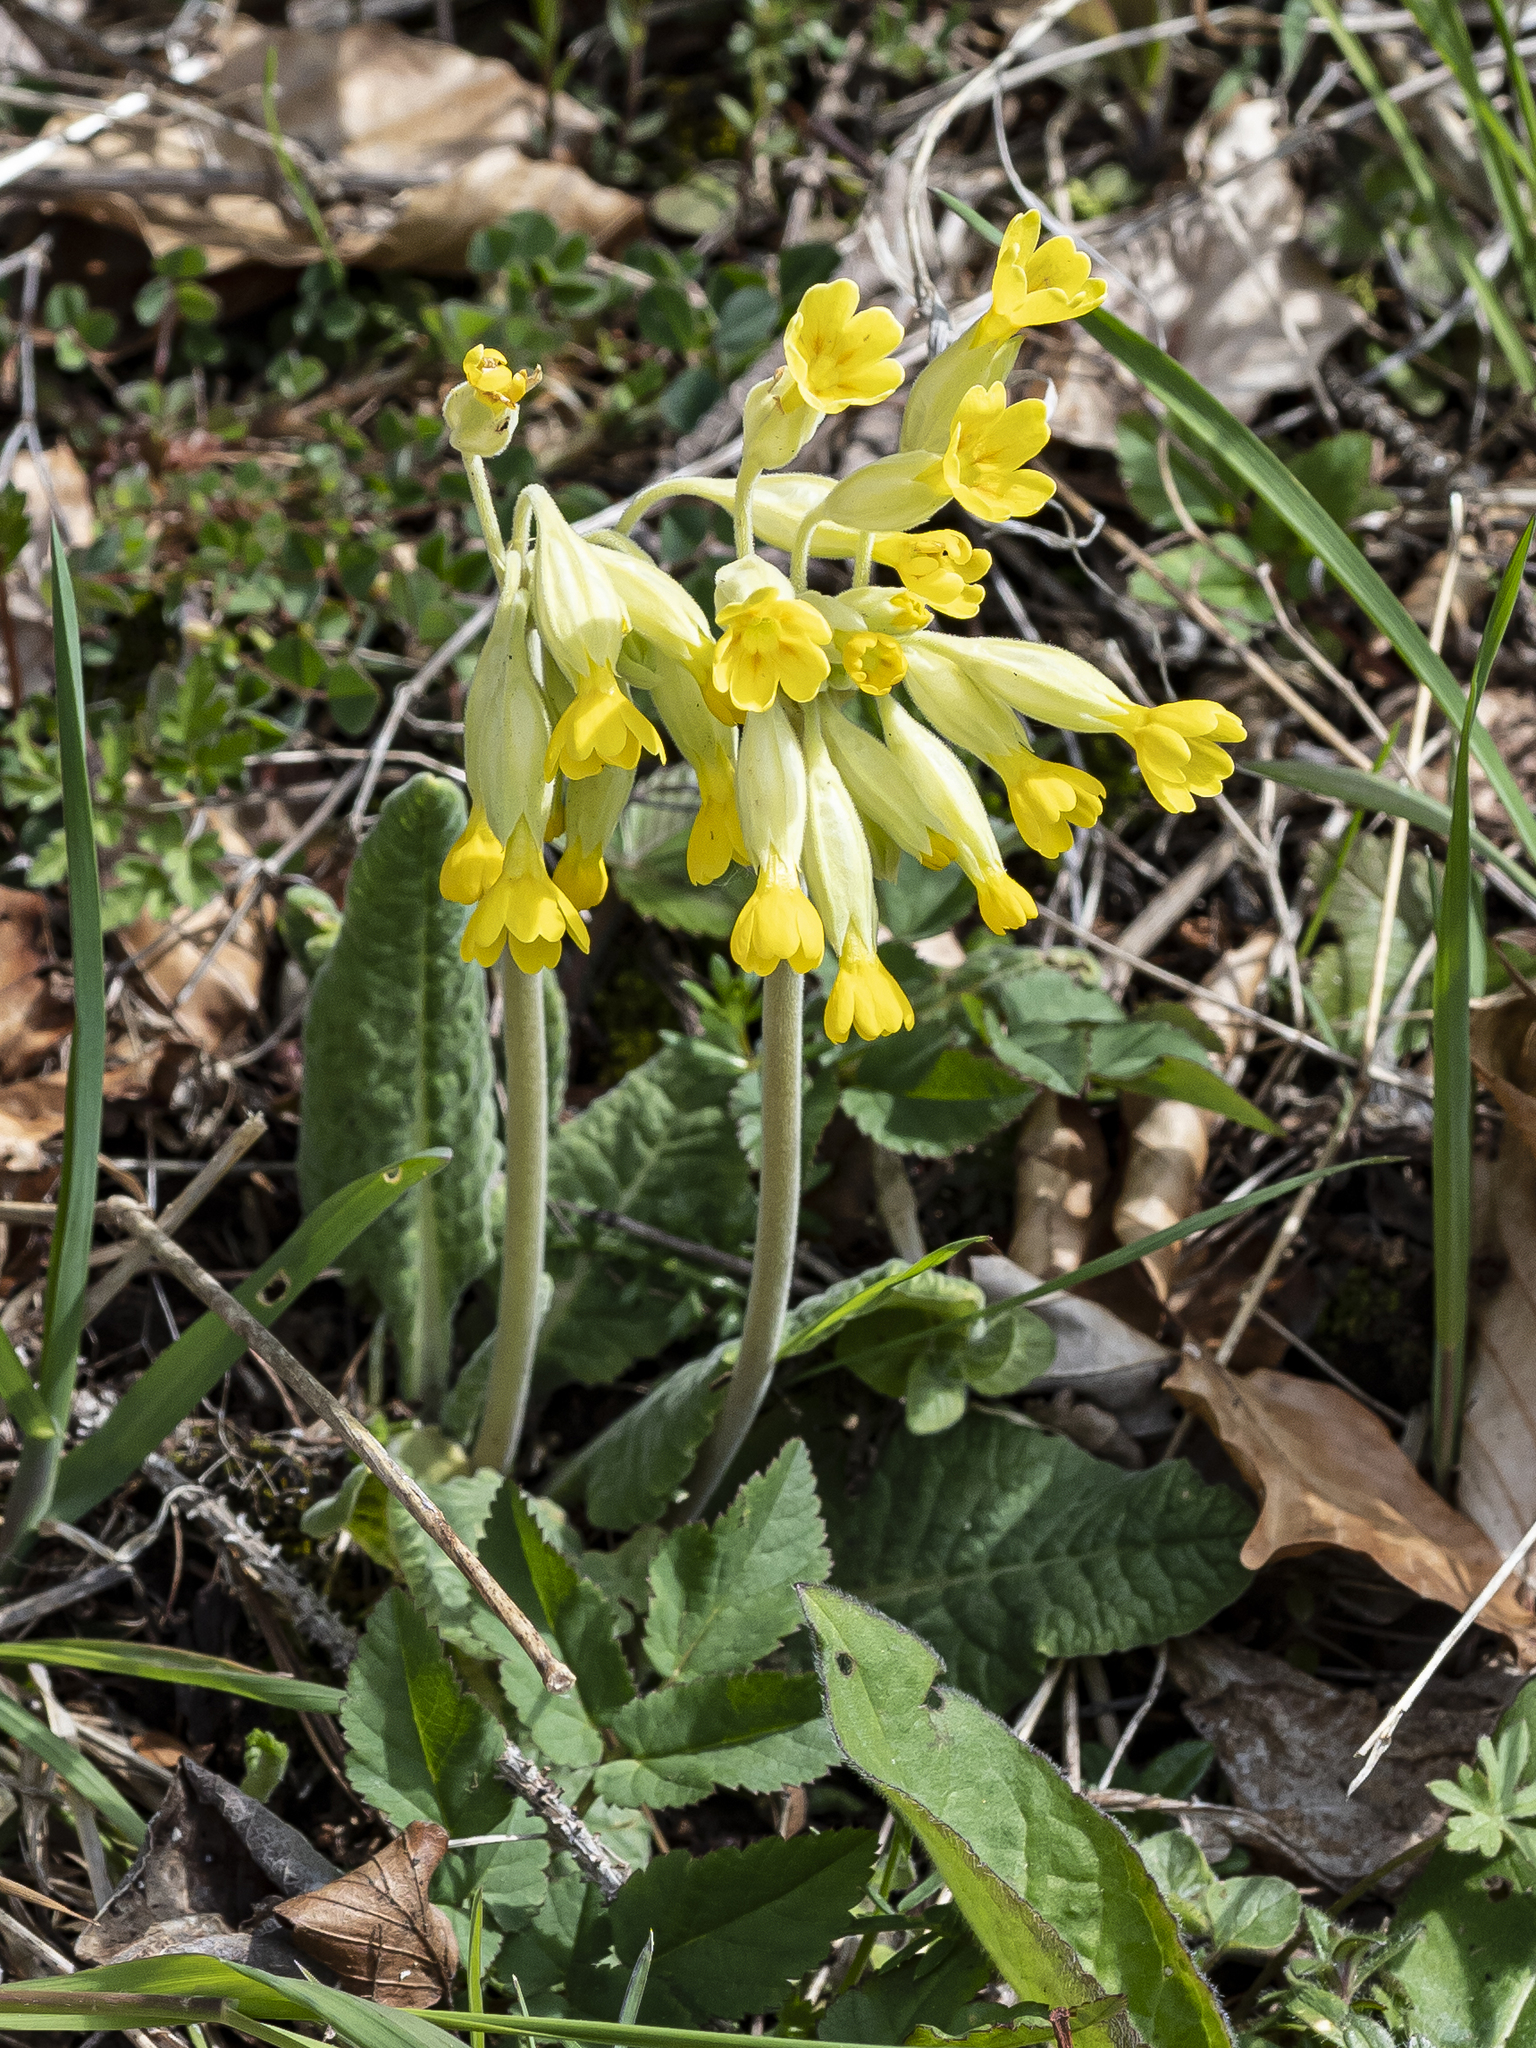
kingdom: Plantae
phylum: Tracheophyta
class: Magnoliopsida
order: Ericales
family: Primulaceae
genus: Primula
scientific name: Primula veris
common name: Cowslip
